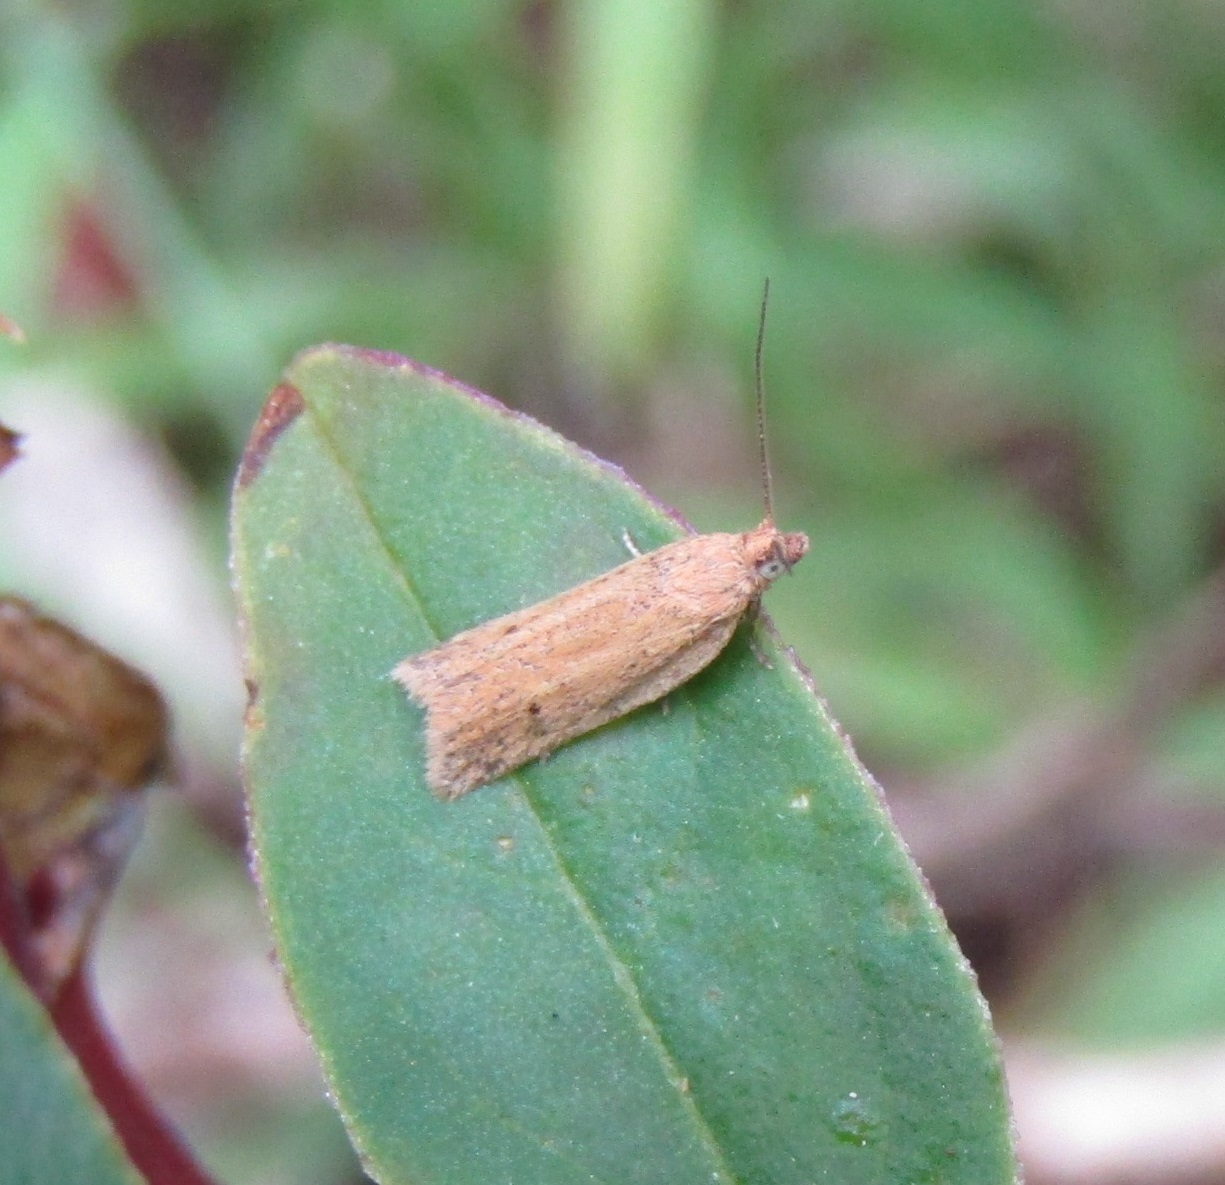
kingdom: Animalia
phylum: Arthropoda
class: Insecta
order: Lepidoptera
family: Tortricidae
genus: Epichorista
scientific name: Epichorista siriana
